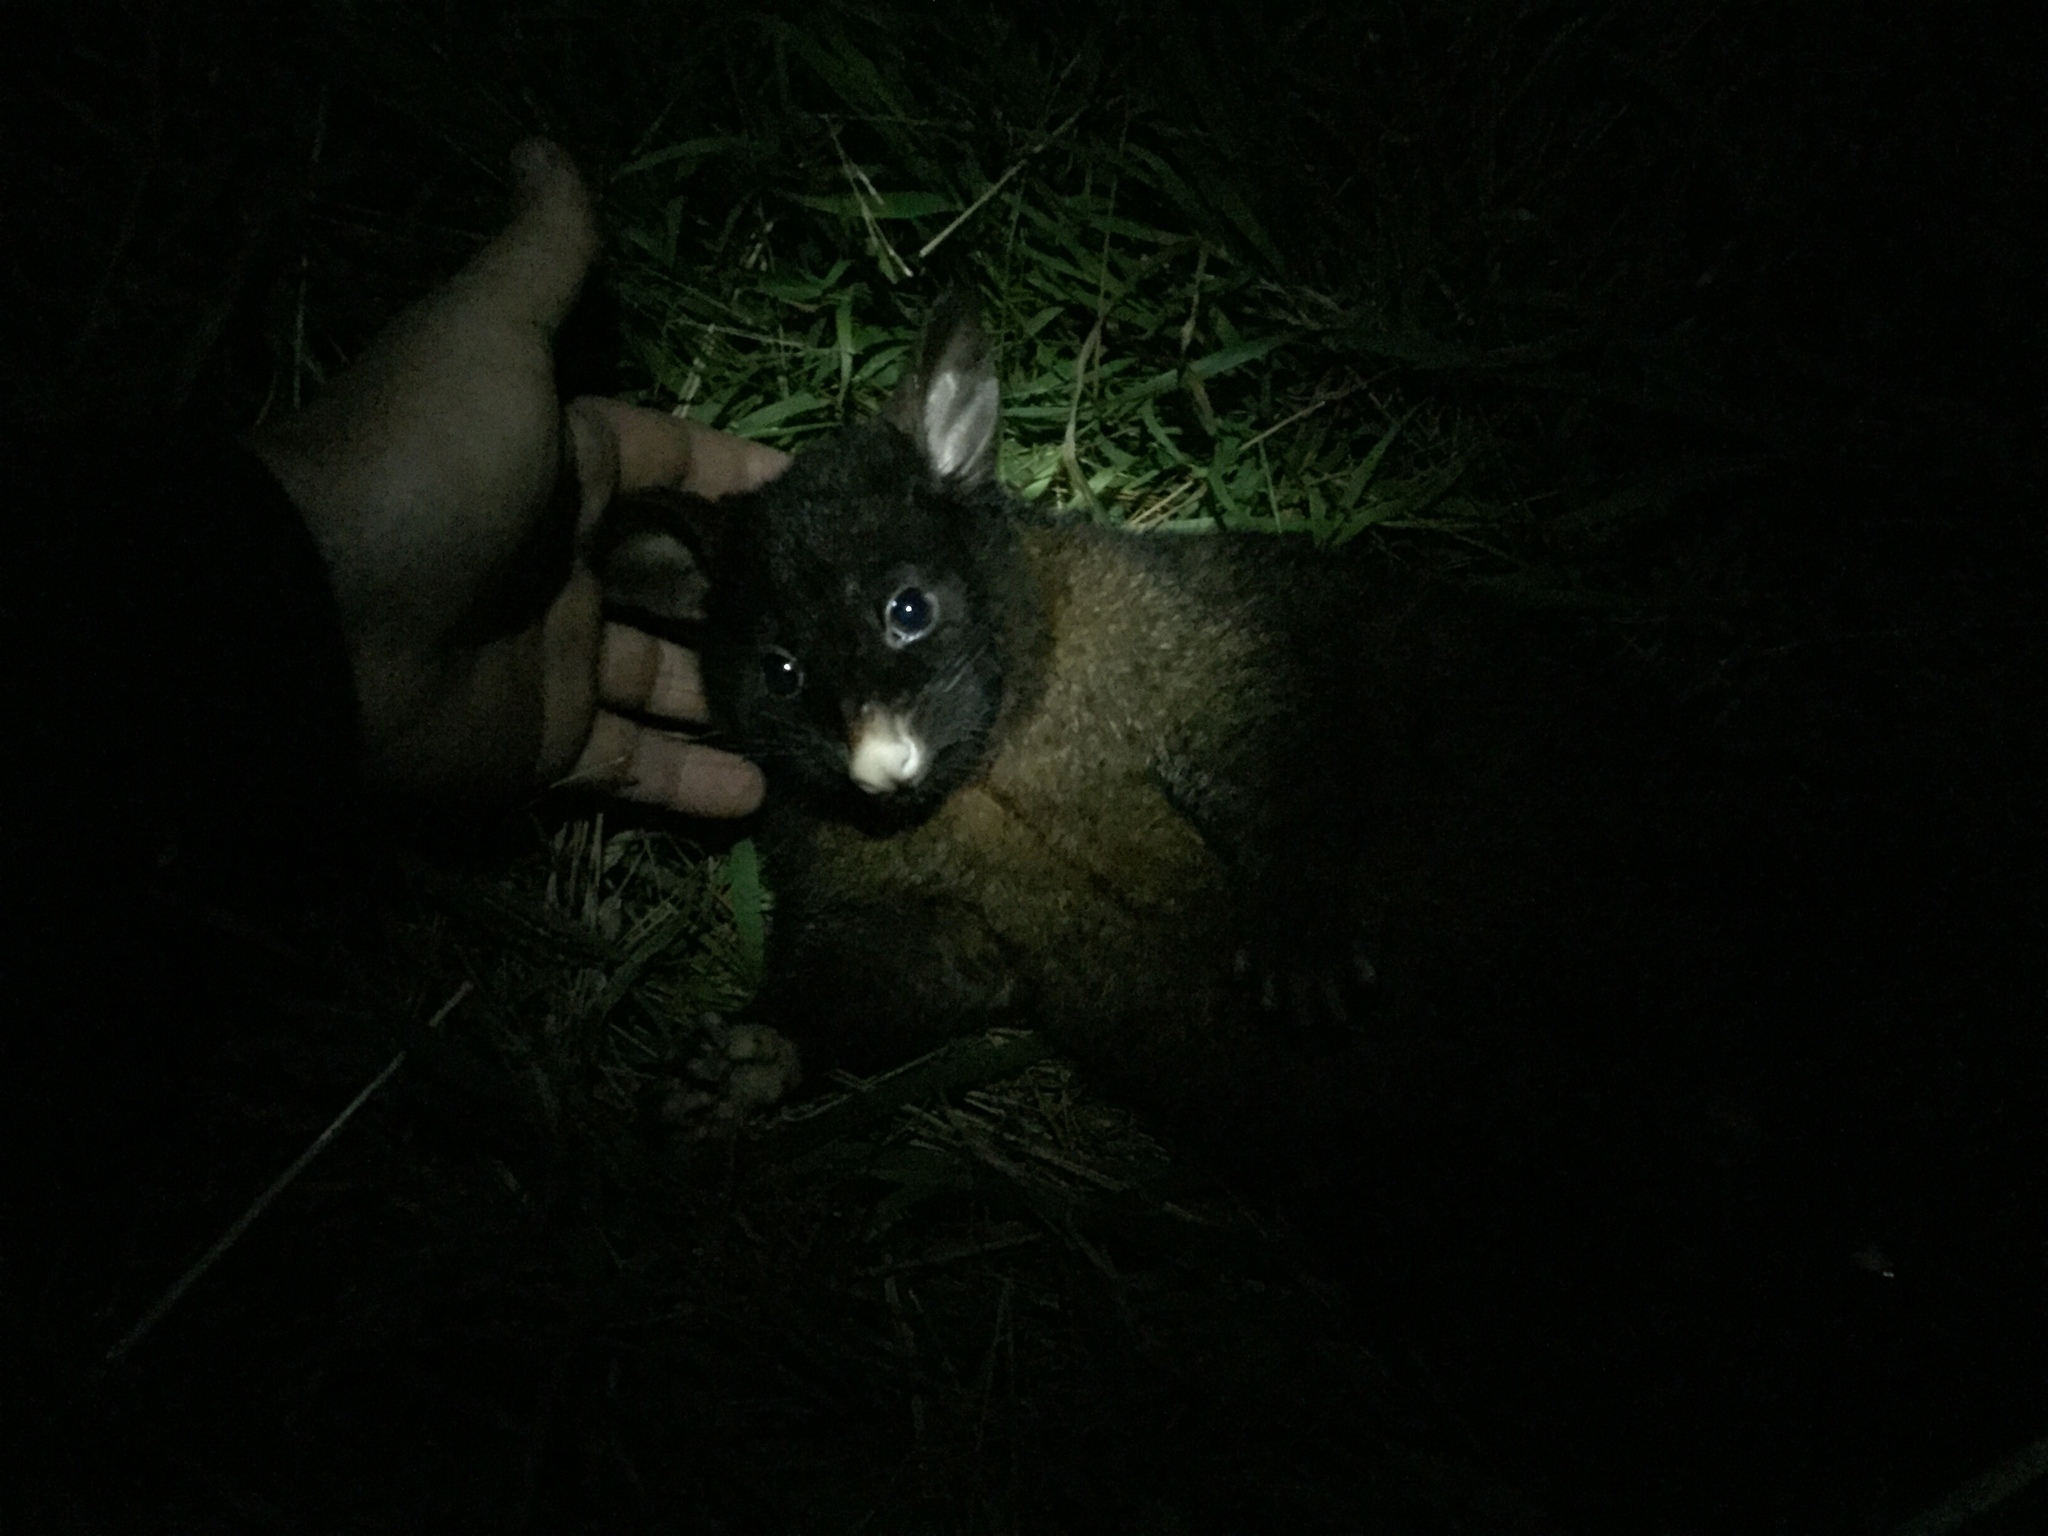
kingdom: Animalia
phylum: Chordata
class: Mammalia
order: Diprotodontia
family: Phalangeridae
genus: Trichosurus
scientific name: Trichosurus vulpecula
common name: Common brushtail
